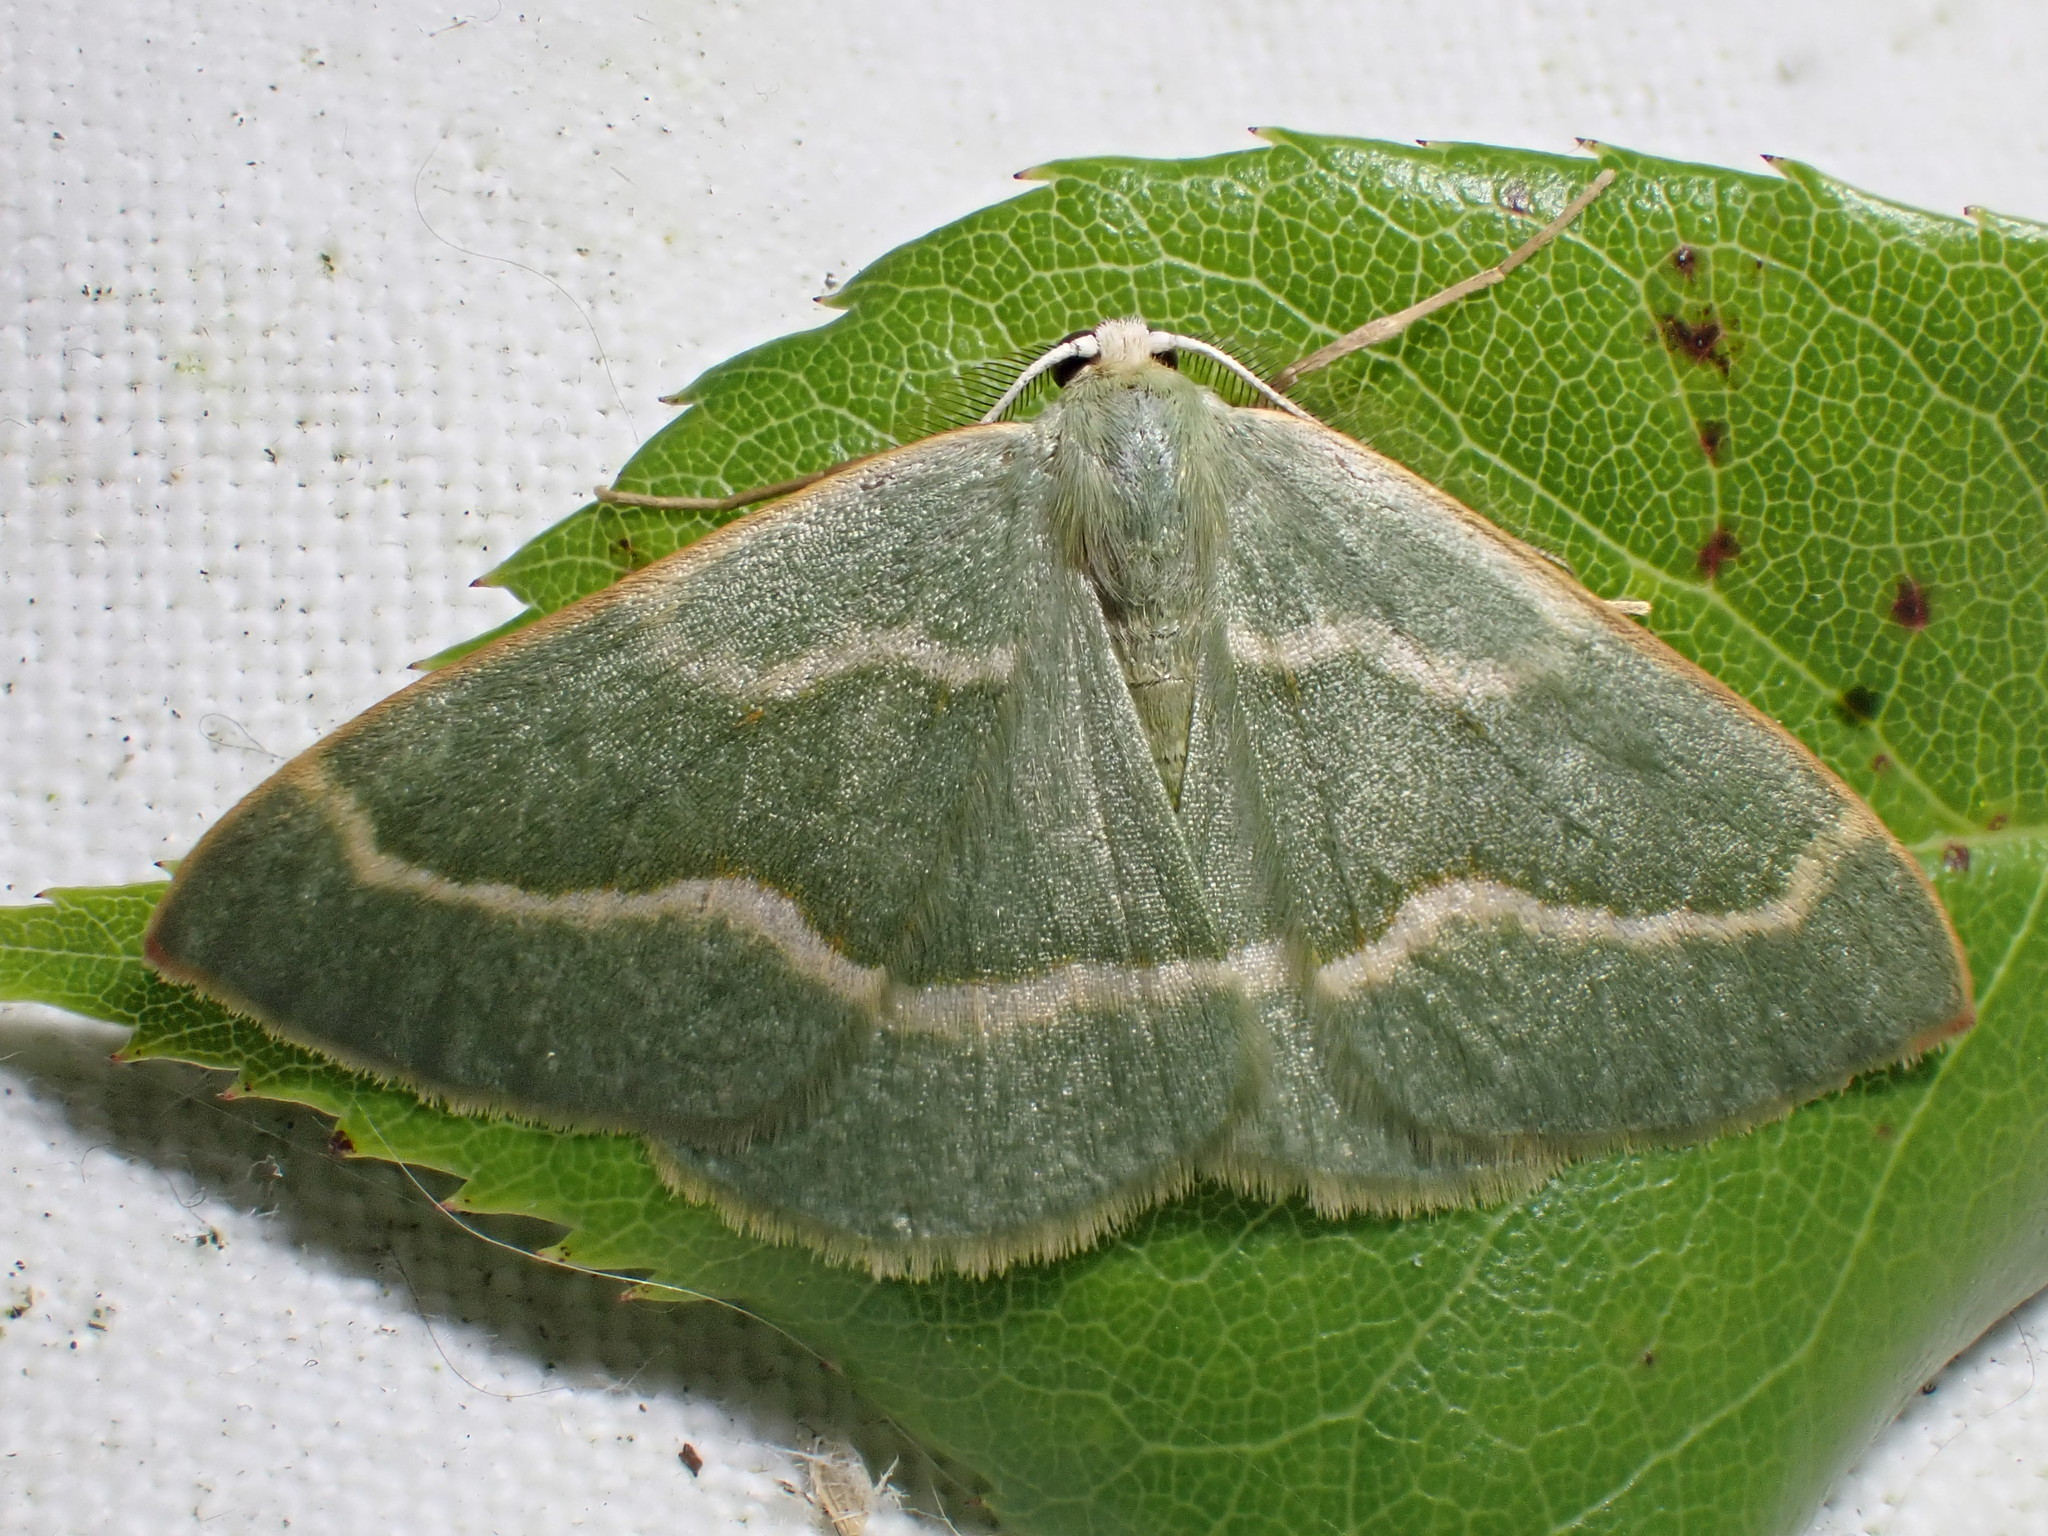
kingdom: Animalia
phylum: Arthropoda
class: Insecta
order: Lepidoptera
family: Geometridae
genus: Hylaea
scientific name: Hylaea fasciaria
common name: Barred red
